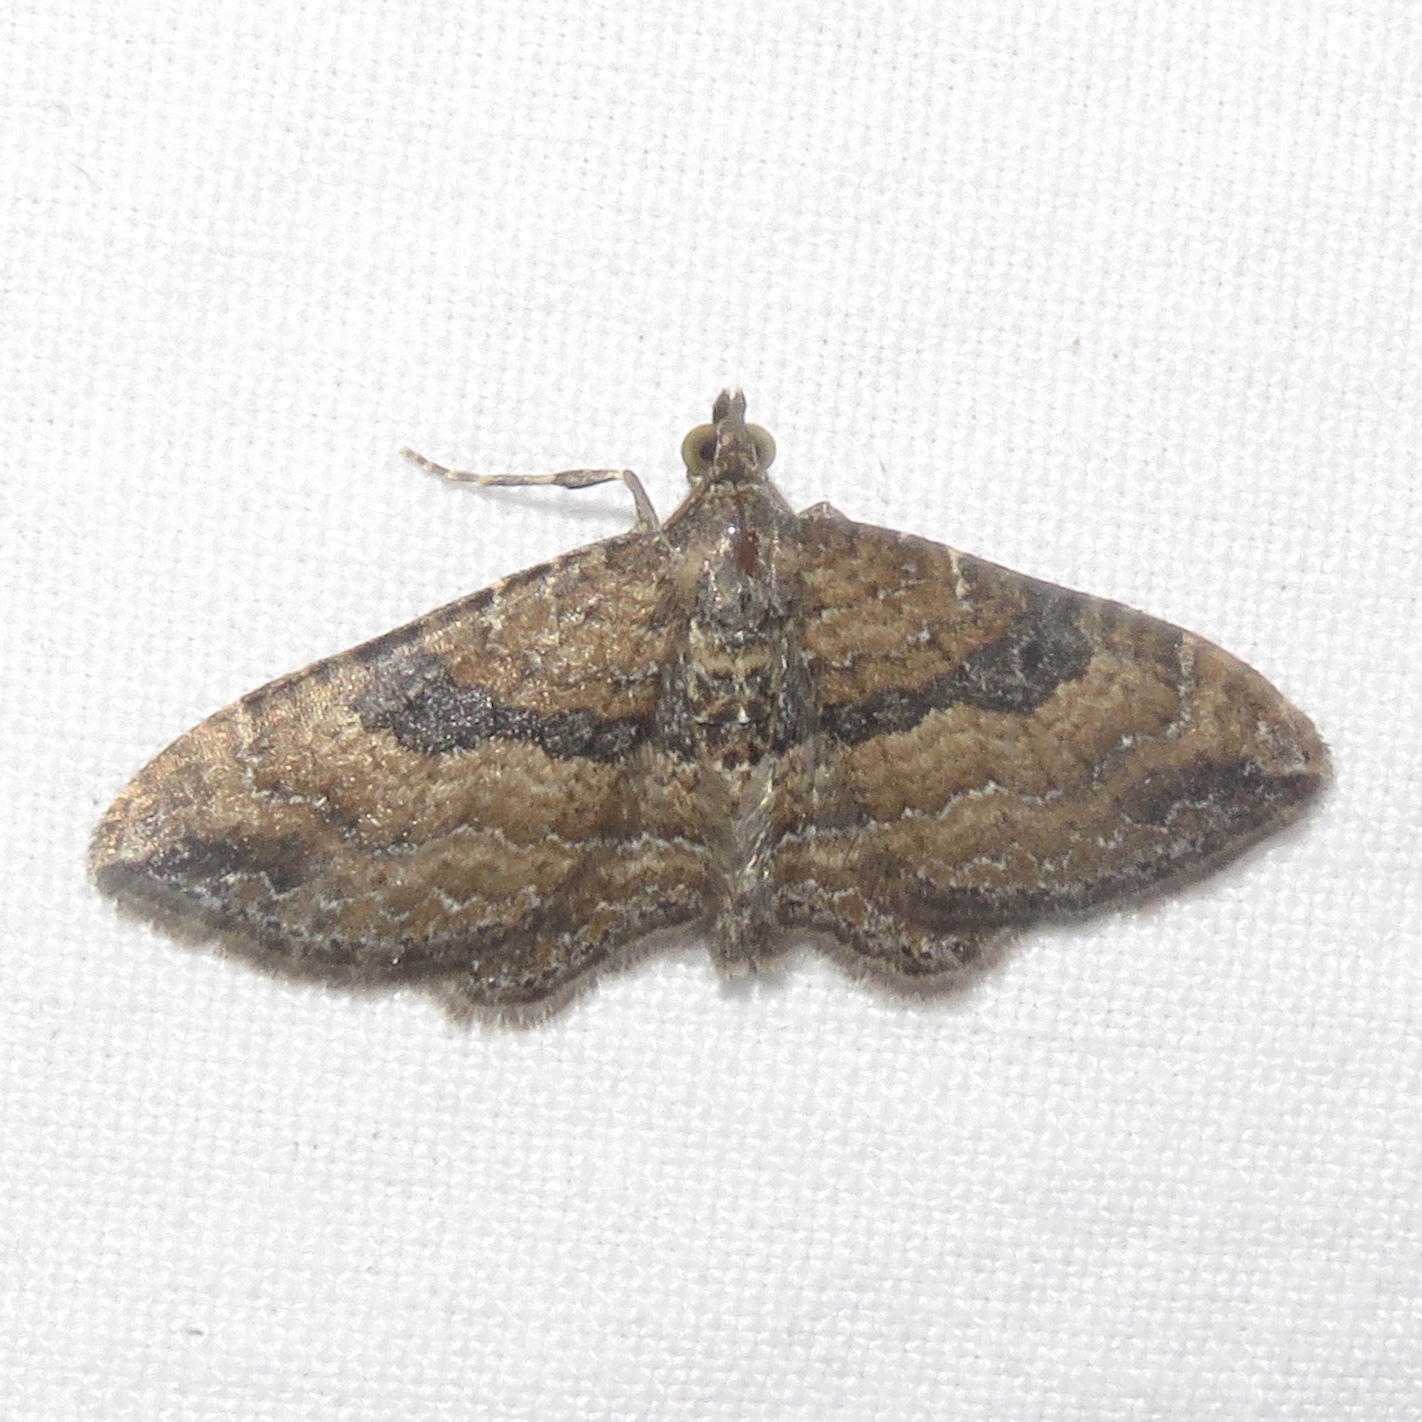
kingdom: Animalia
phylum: Arthropoda
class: Insecta
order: Lepidoptera
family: Geometridae
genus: Orthonama
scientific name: Orthonama obstipata
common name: The gem
